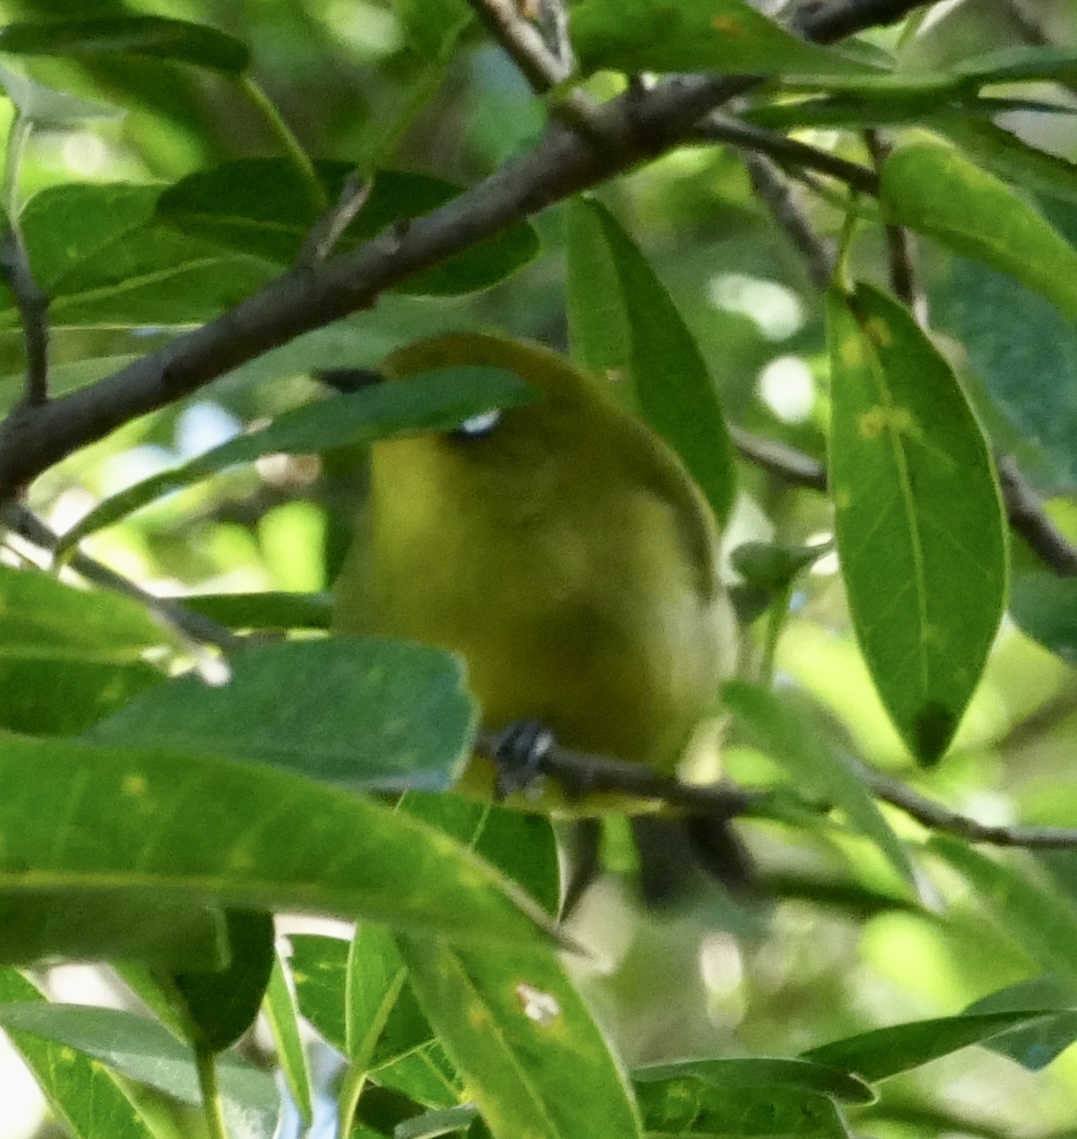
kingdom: Animalia
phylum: Chordata
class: Aves
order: Passeriformes
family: Zosteropidae
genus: Zosterops
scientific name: Zosterops virens
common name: Cape white-eye
